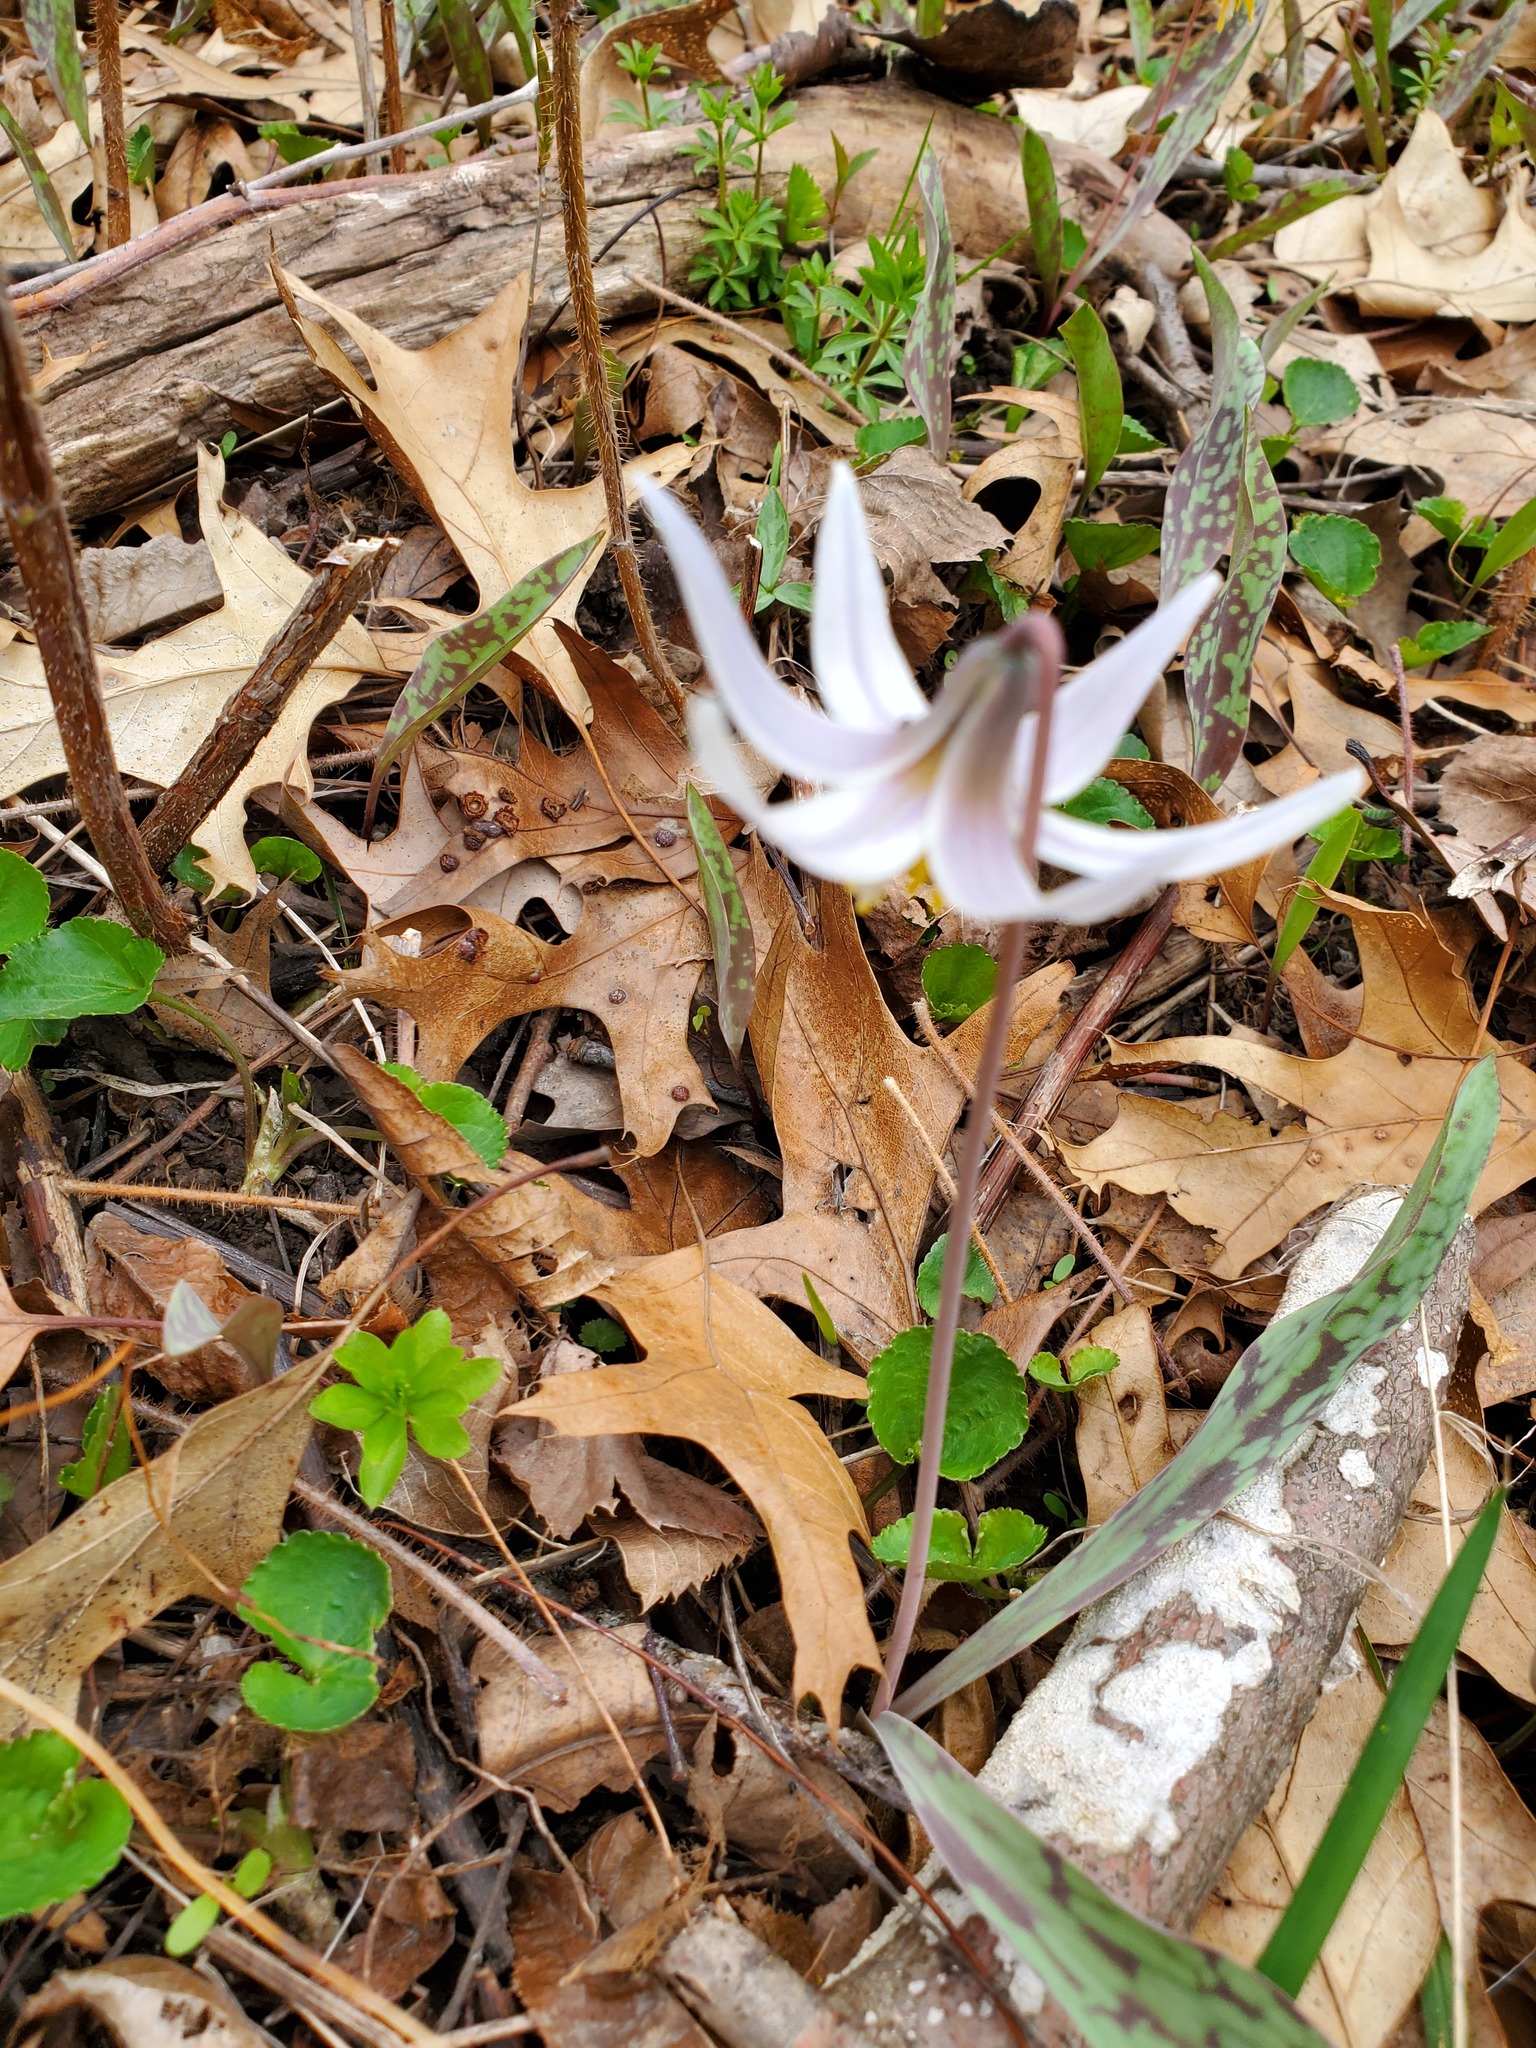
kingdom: Plantae
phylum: Tracheophyta
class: Liliopsida
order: Liliales
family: Liliaceae
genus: Erythronium
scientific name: Erythronium albidum
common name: White trout-lily
